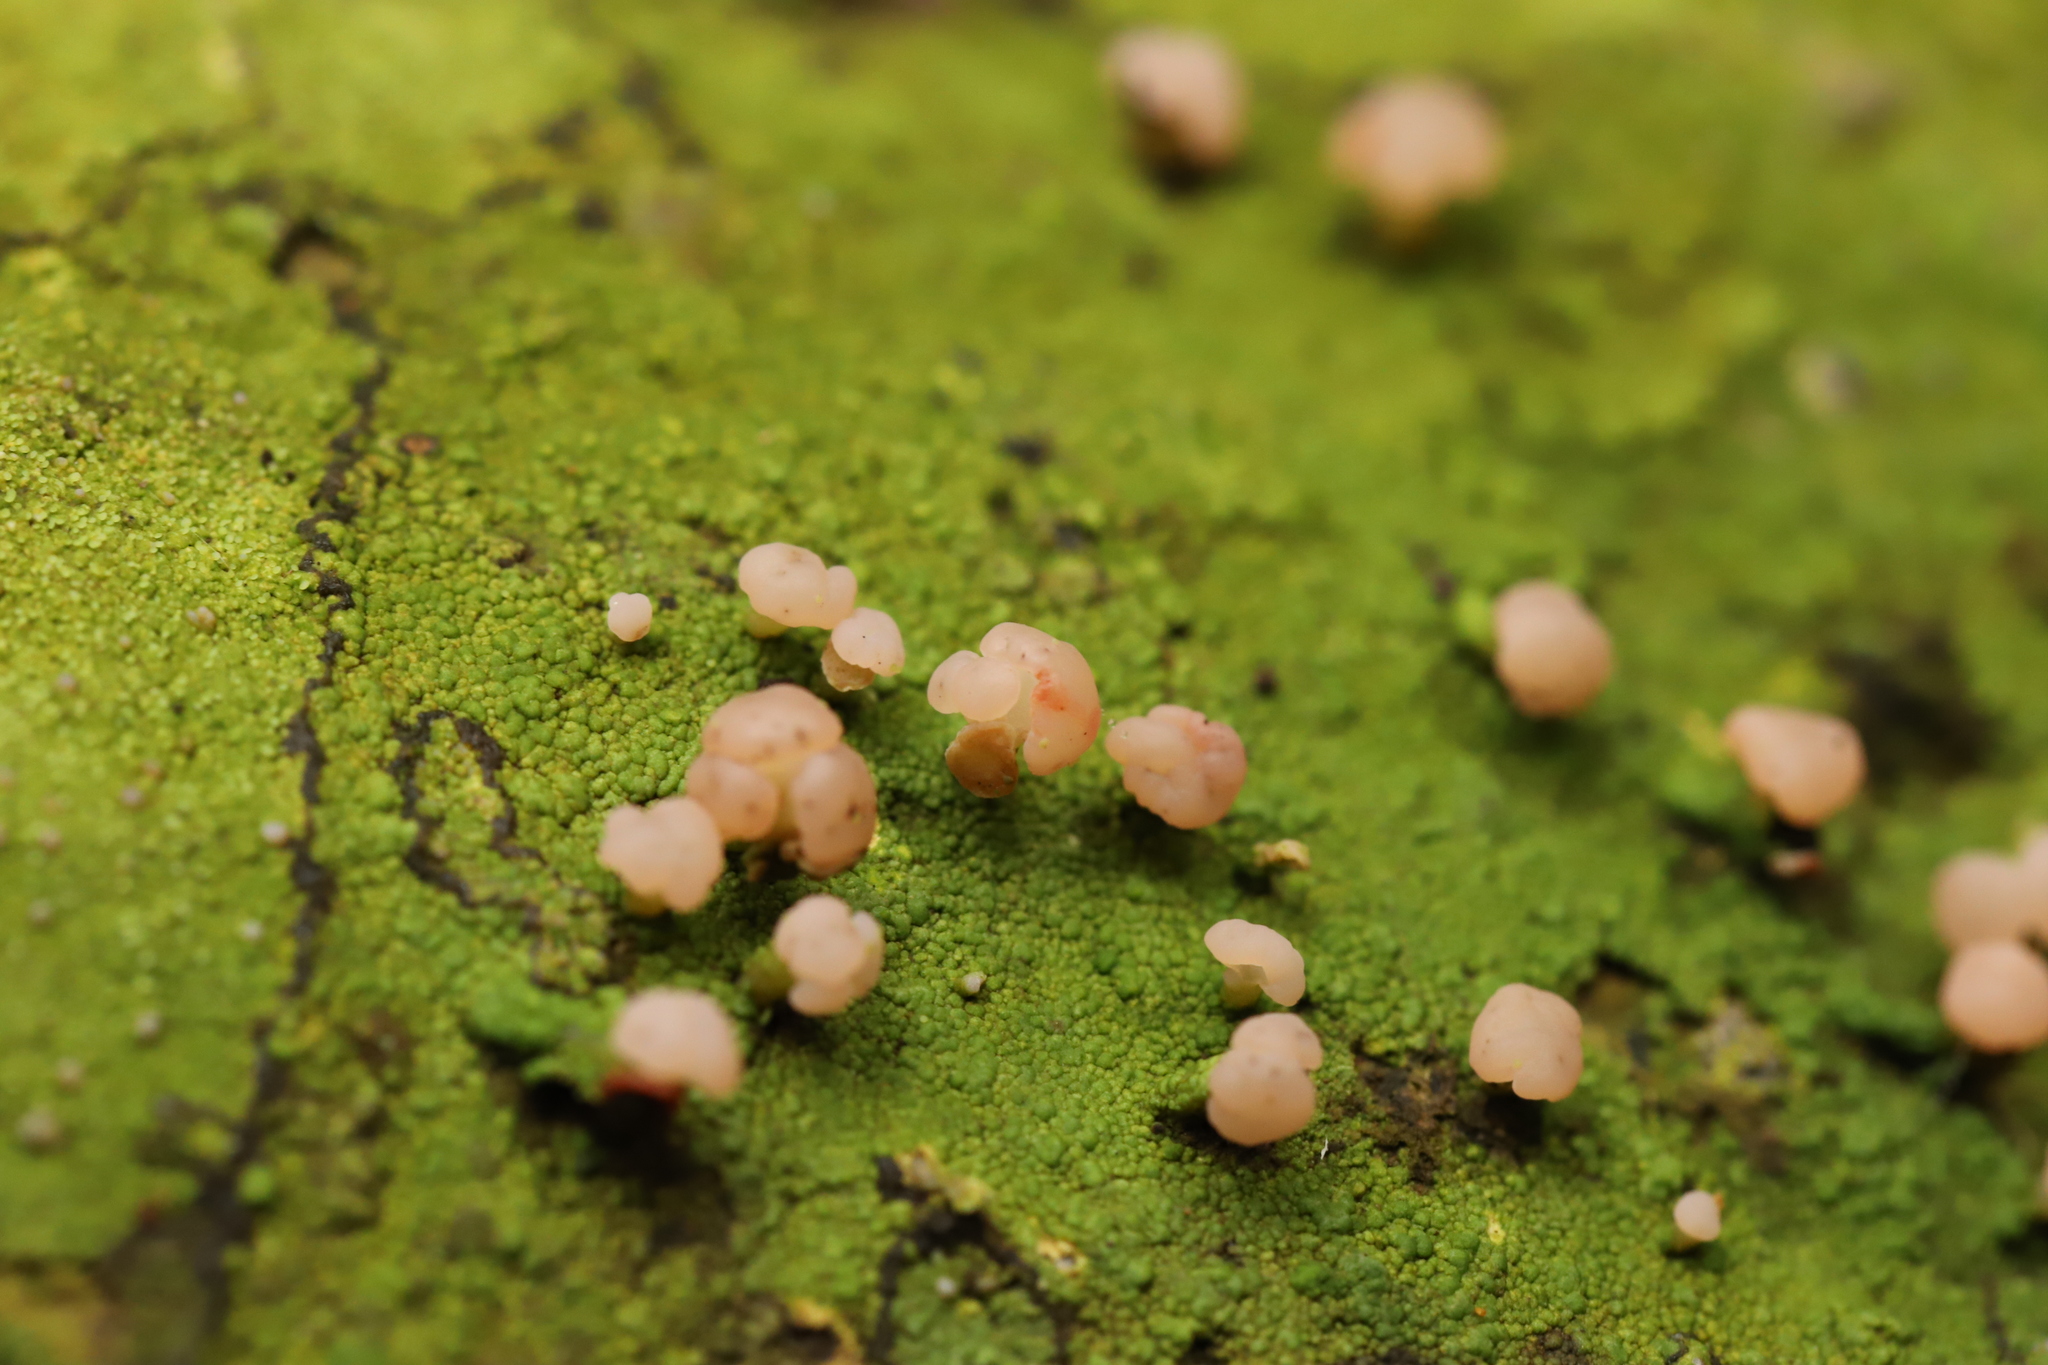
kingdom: Fungi
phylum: Ascomycota
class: Lecanoromycetes
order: Baeomycetales
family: Baeomycetaceae
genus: Baeomyces
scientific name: Baeomyces heteromorphus
